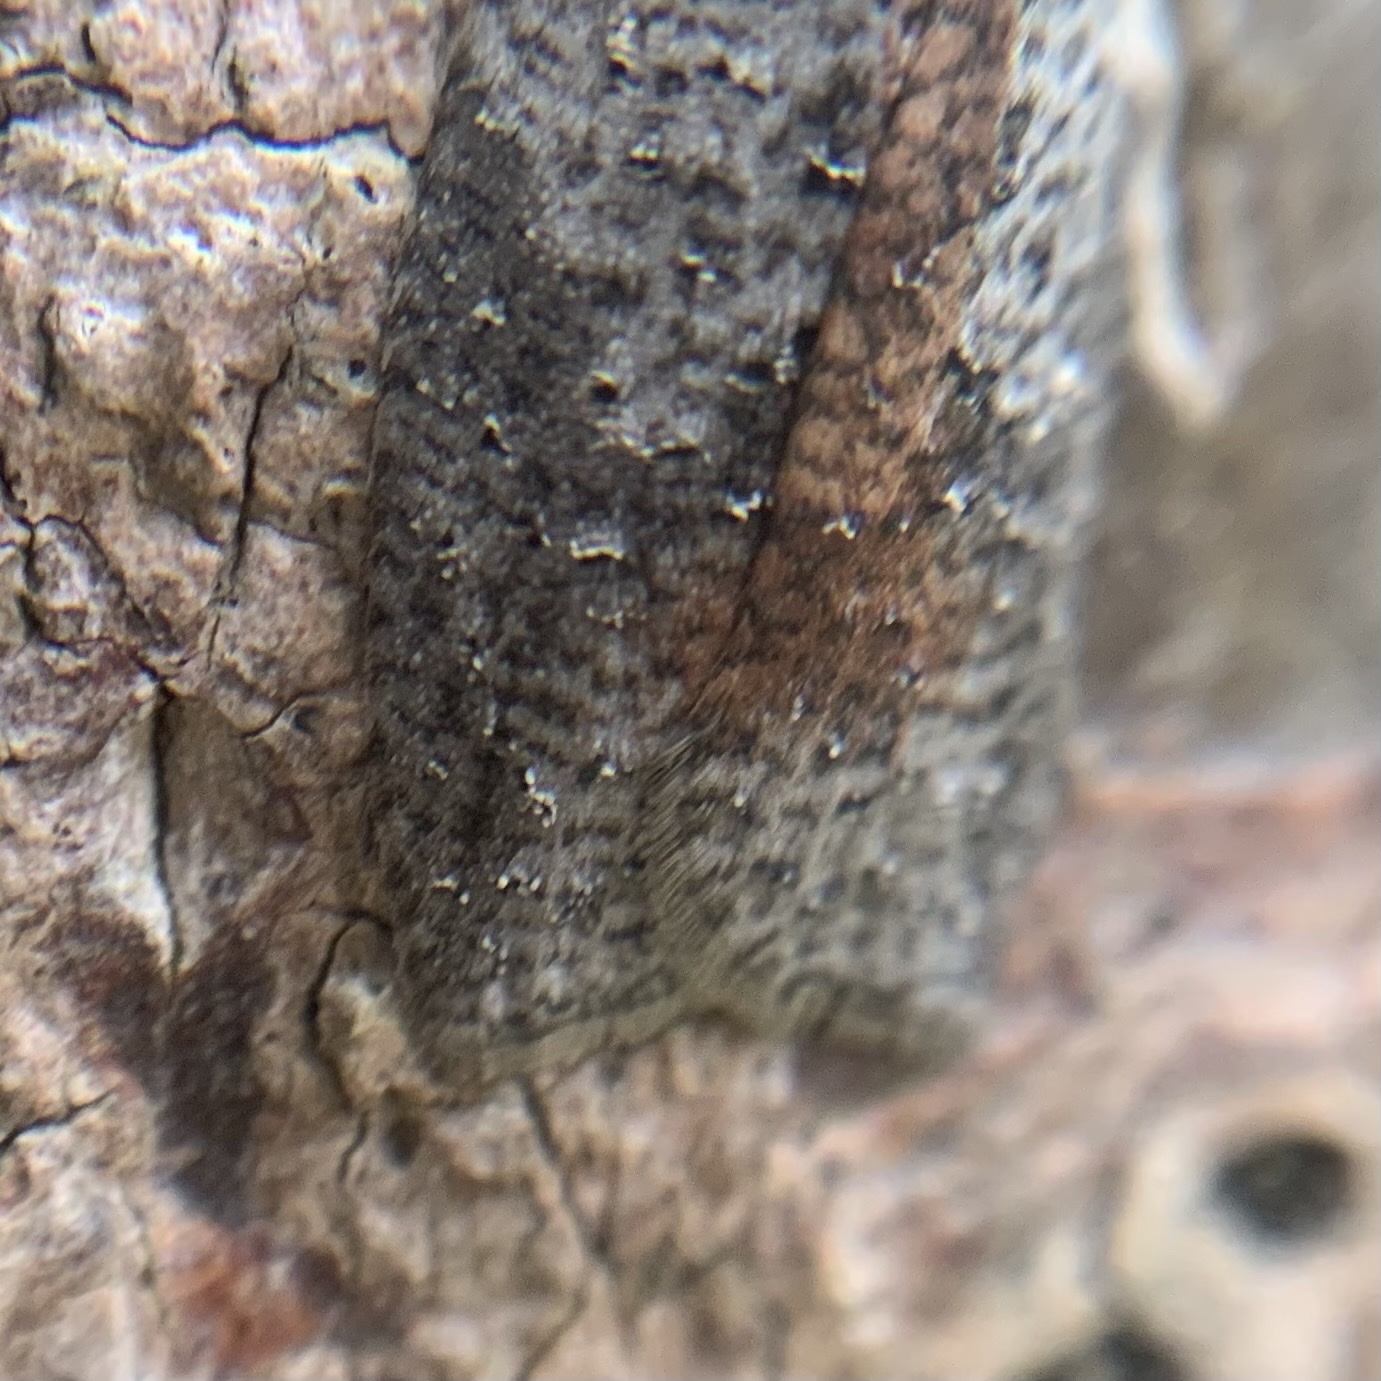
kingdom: Animalia
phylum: Arthropoda
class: Insecta
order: Lepidoptera
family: Tortricidae
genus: Amorbia
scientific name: Amorbia humerosana
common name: White-lined leafroller moth
